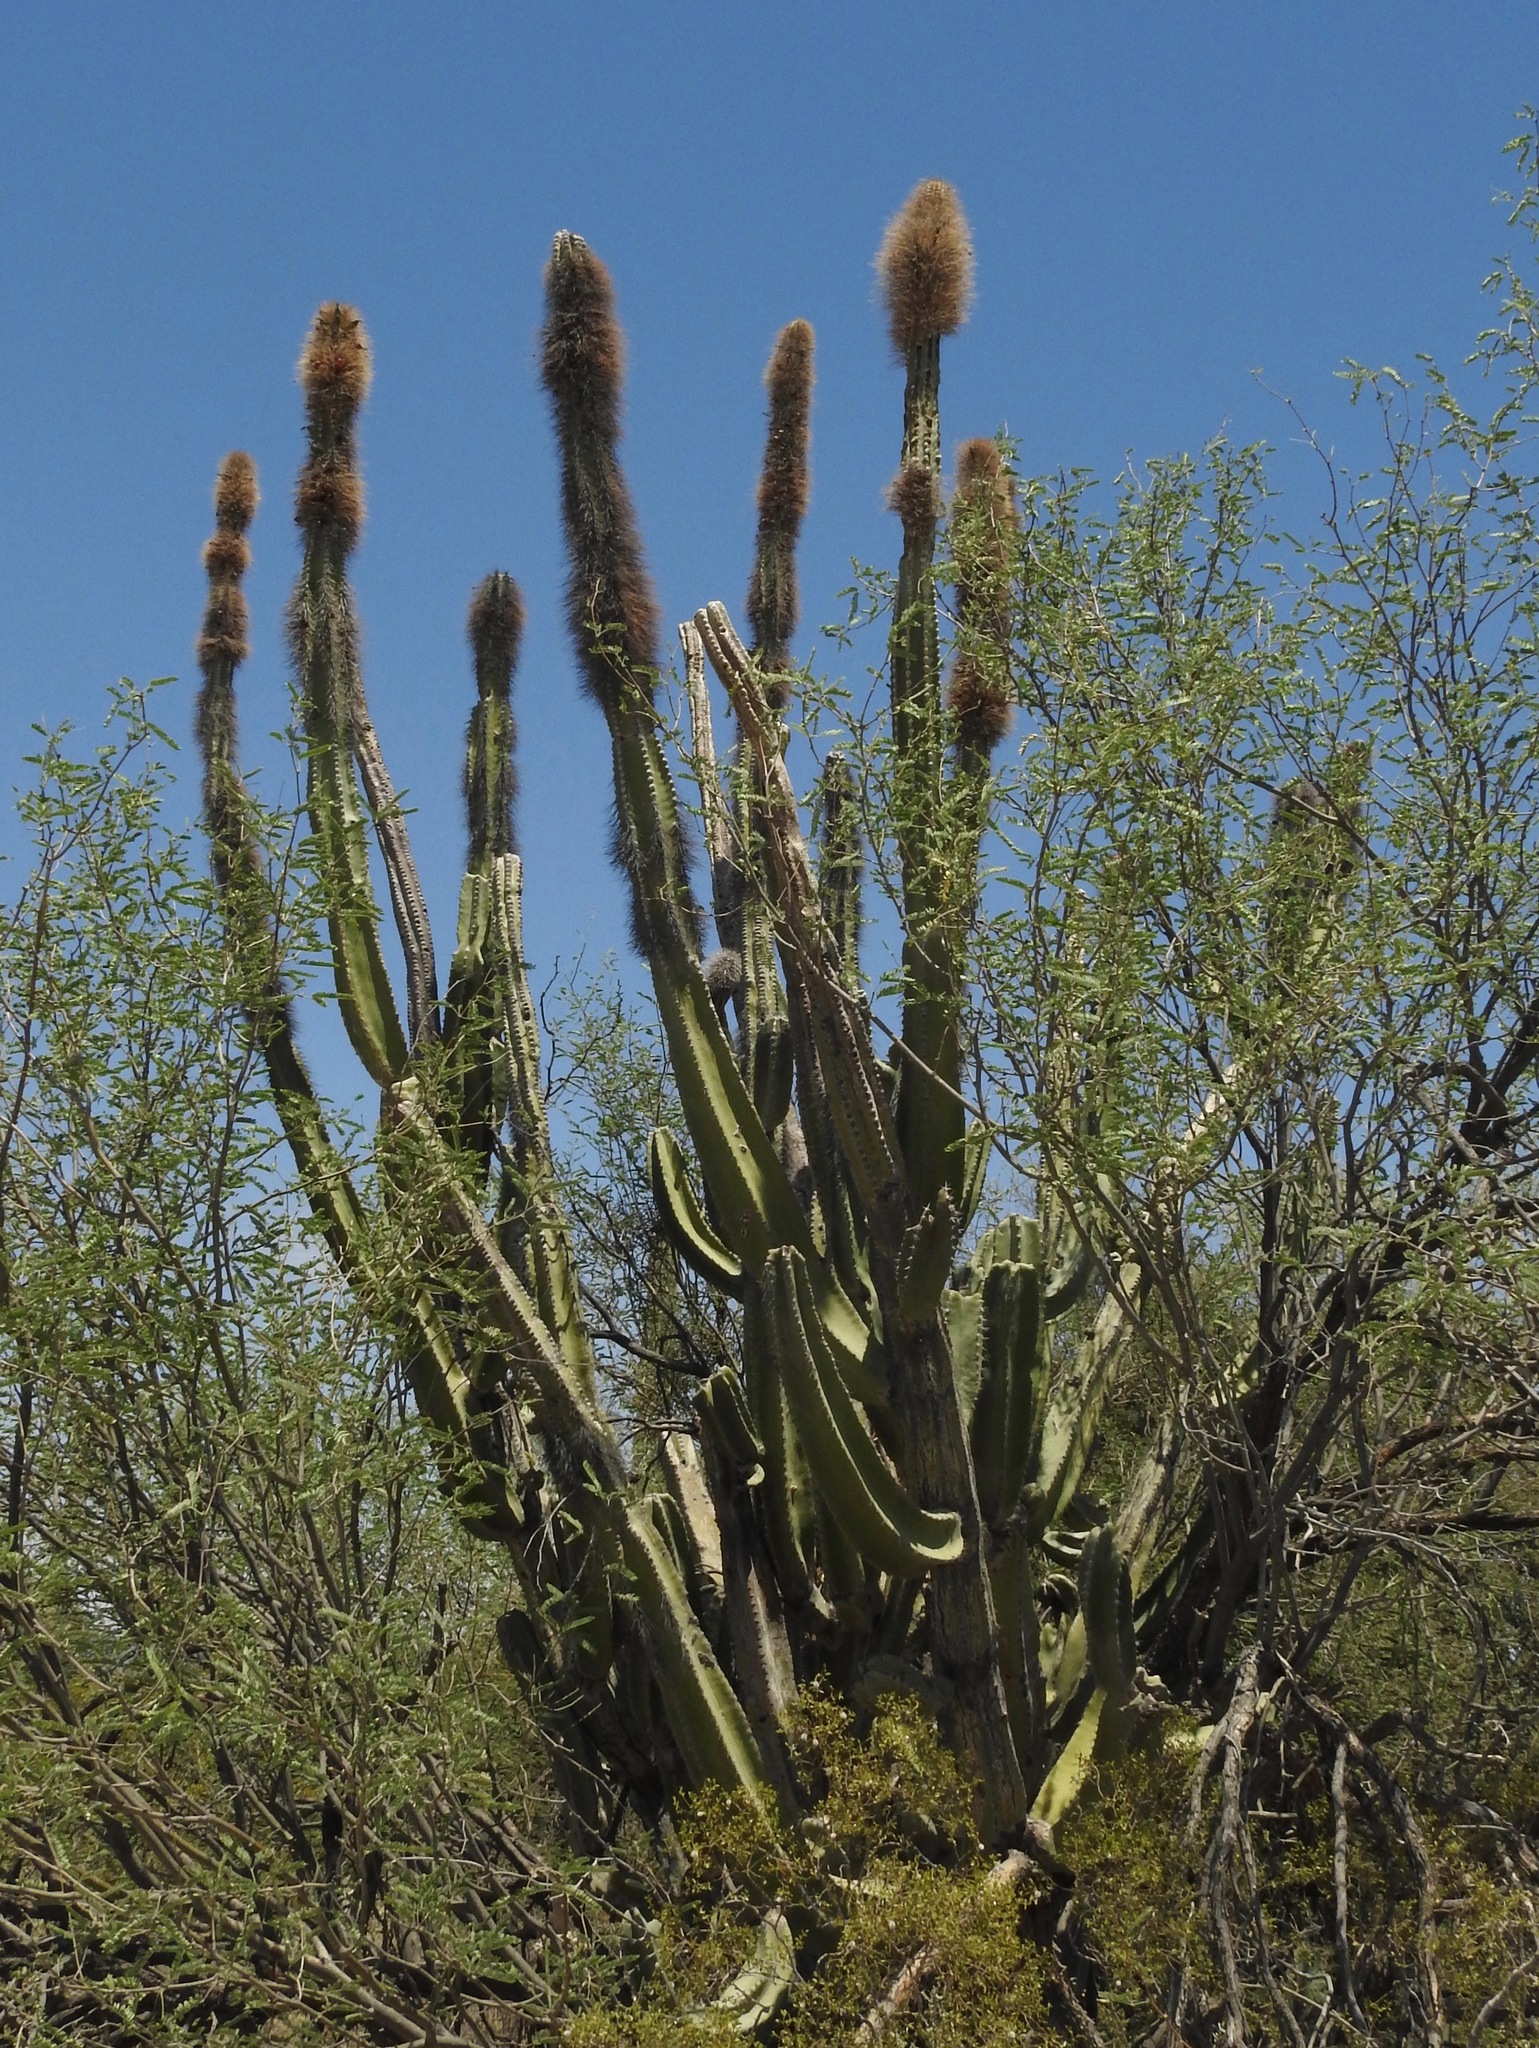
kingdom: Plantae
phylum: Tracheophyta
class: Magnoliopsida
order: Caryophyllales
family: Cactaceae
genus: Pachycereus
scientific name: Pachycereus schottii
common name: Senita cactus
